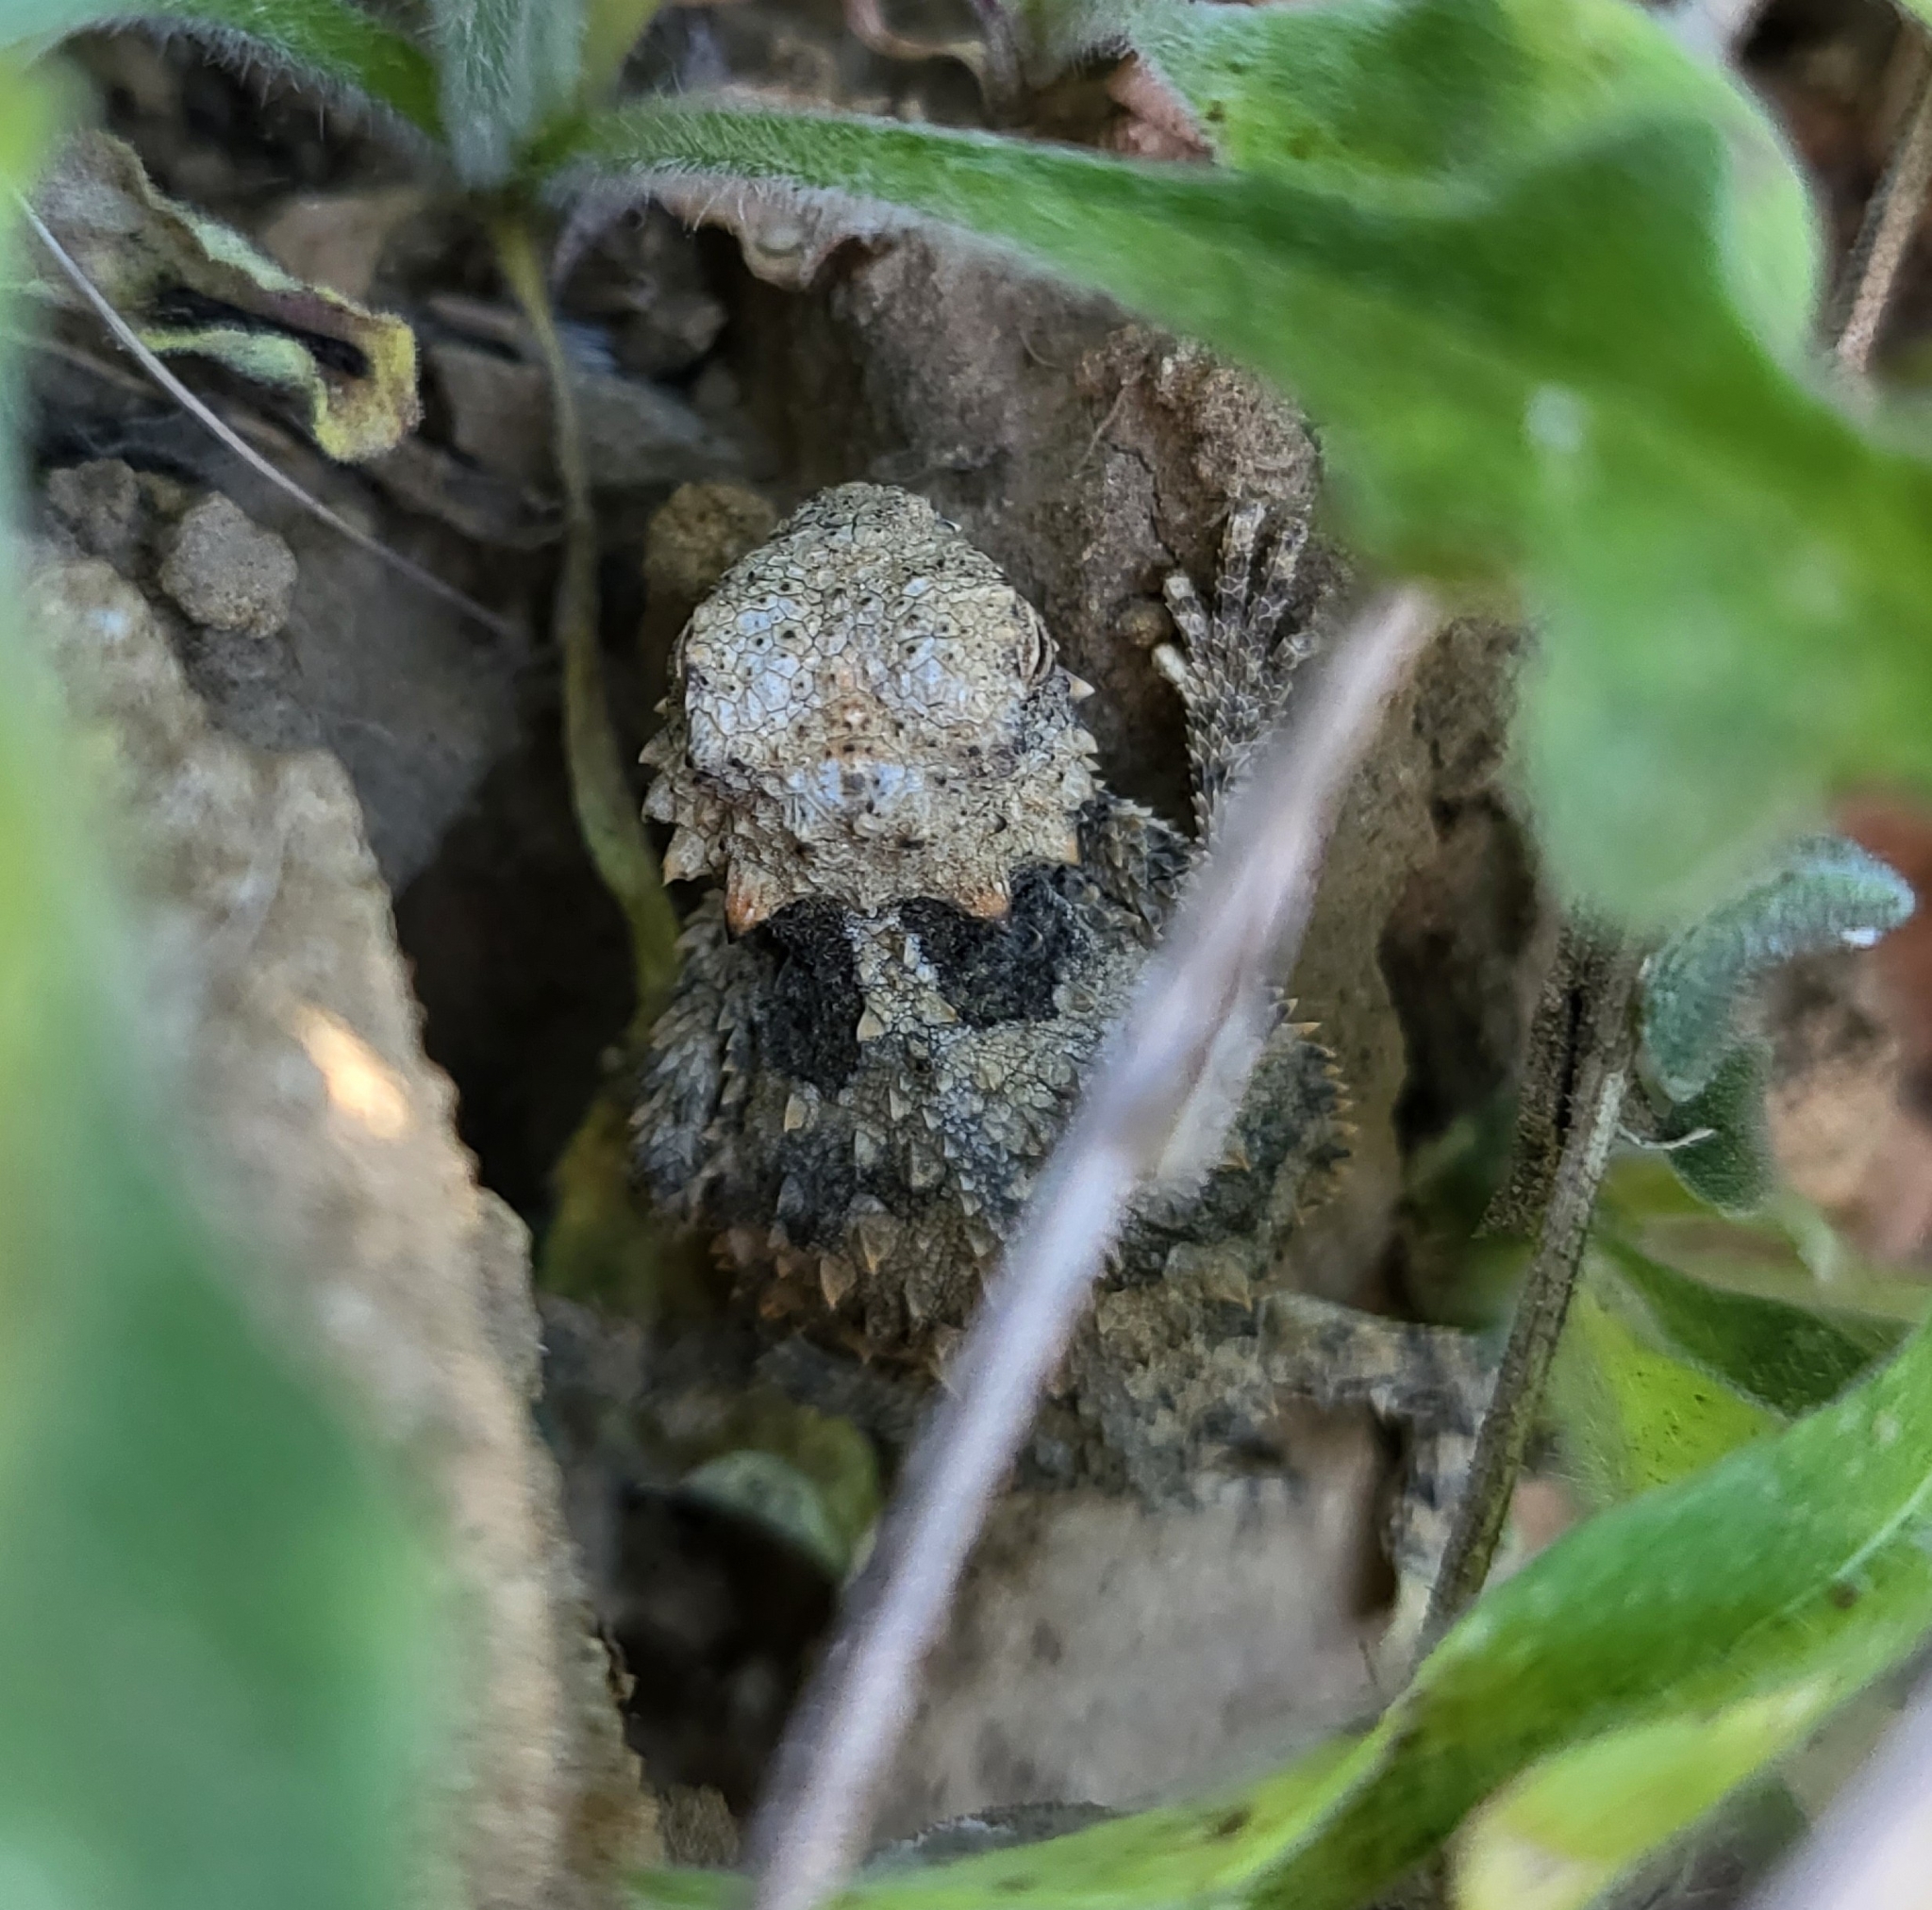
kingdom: Animalia
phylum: Chordata
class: Squamata
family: Phrynosomatidae
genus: Phrynosoma
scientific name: Phrynosoma blainvillii
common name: San diego horned lizard
